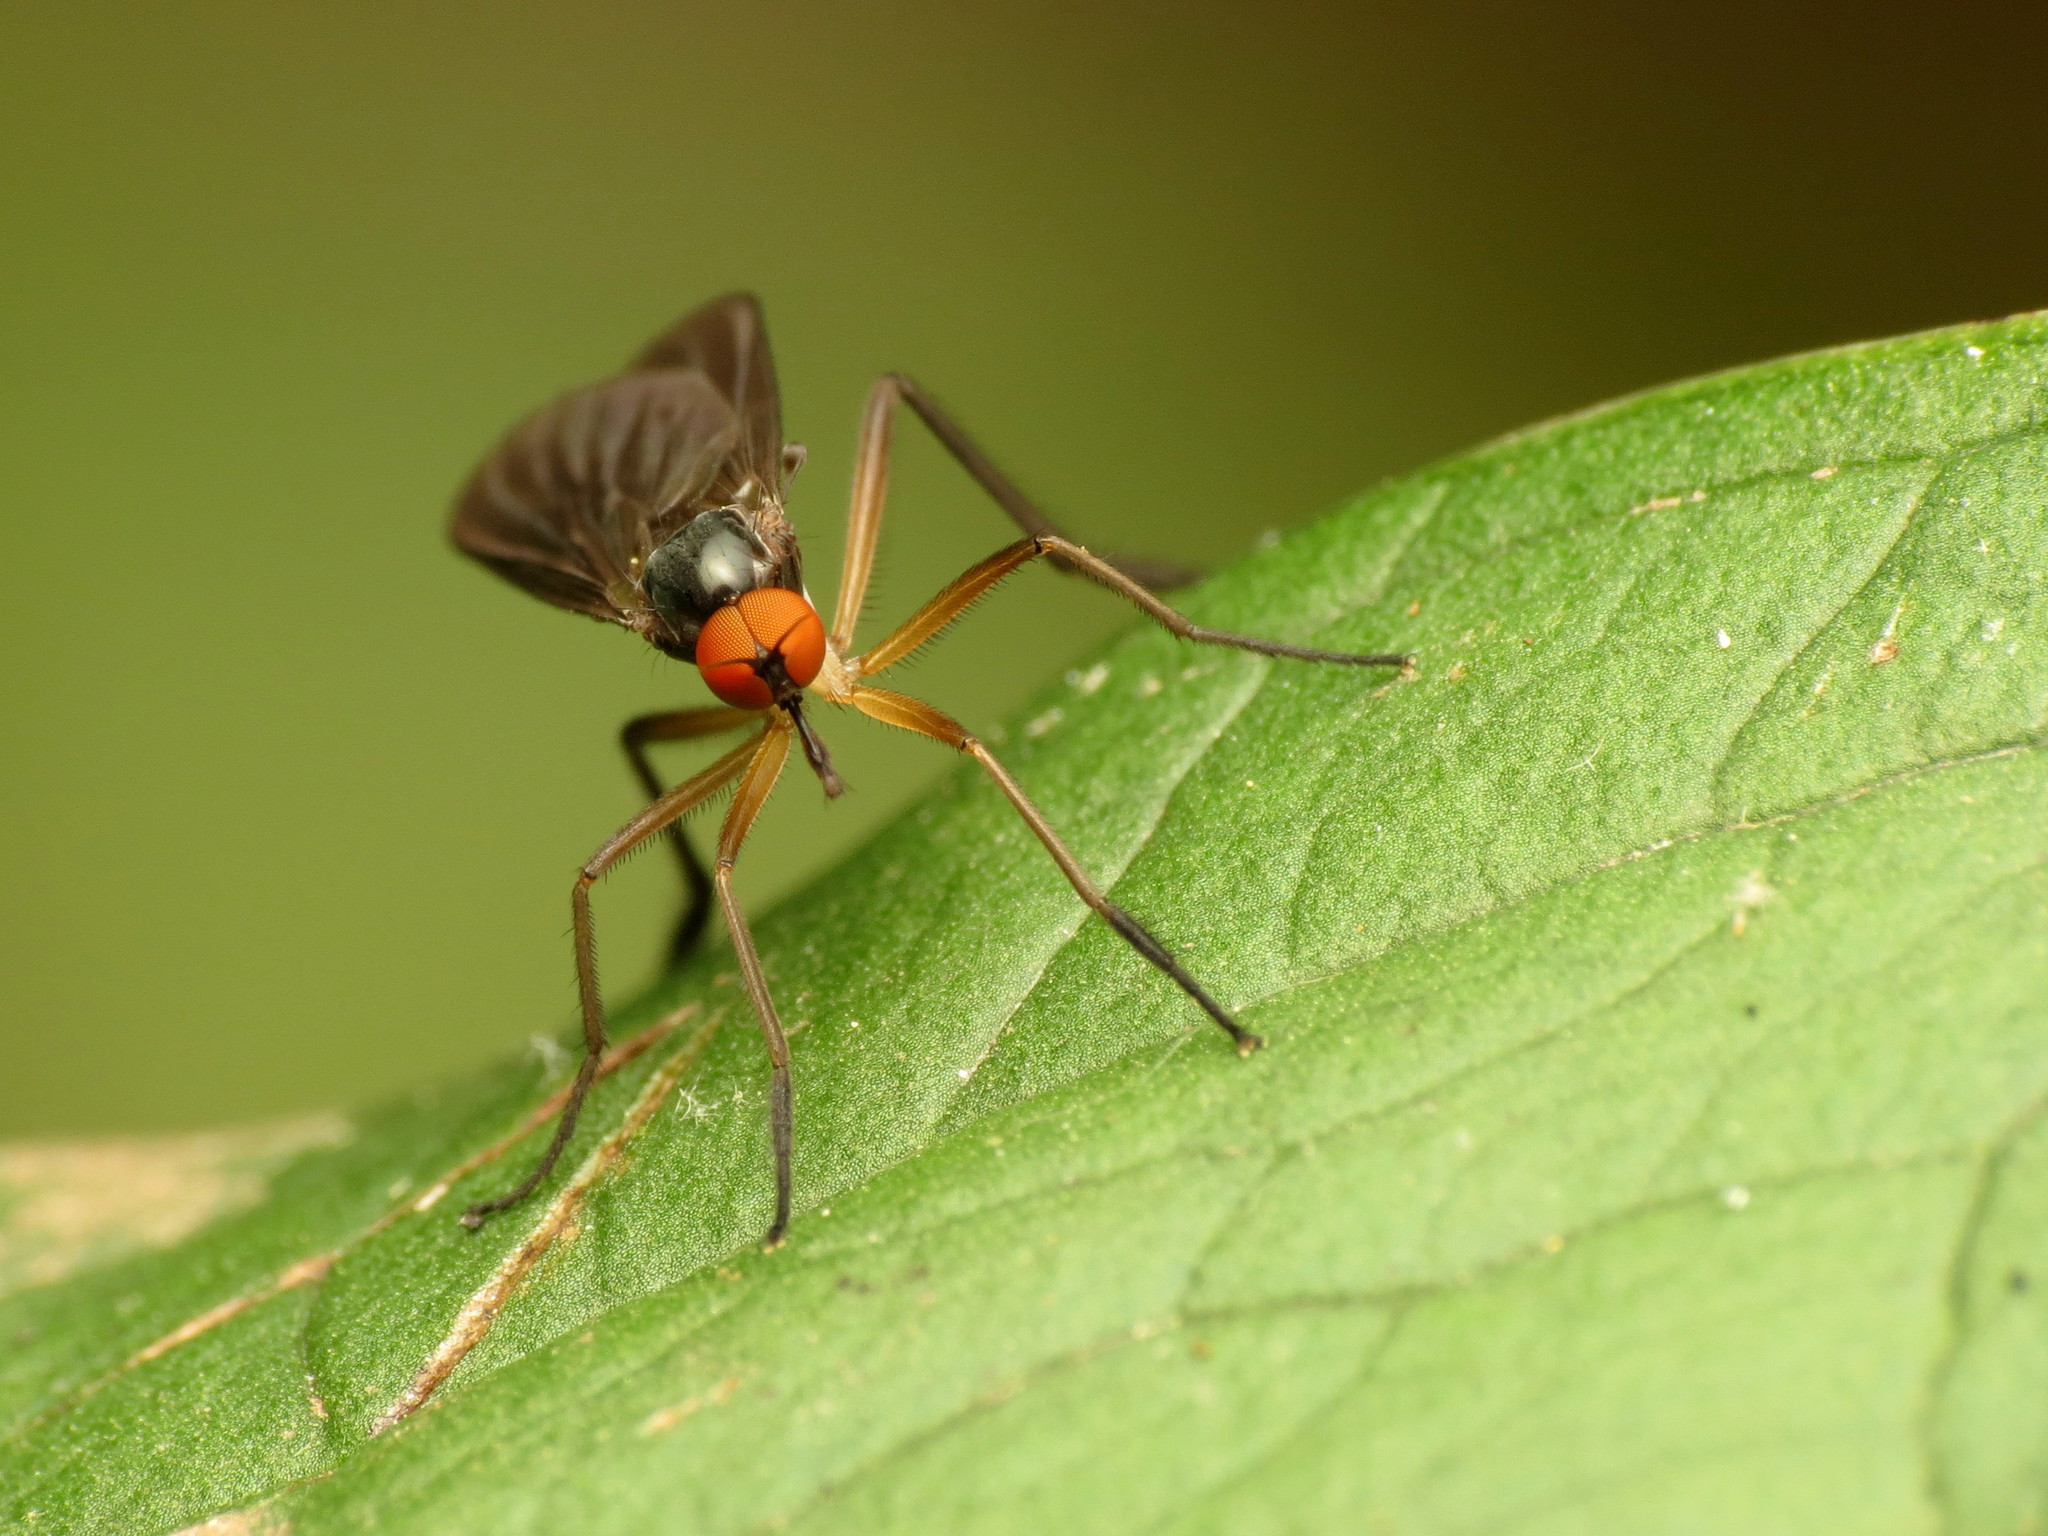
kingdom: Animalia
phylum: Arthropoda
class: Insecta
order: Diptera
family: Empididae
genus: Rhamphomyia
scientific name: Rhamphomyia longicauda
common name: Long-tailed dance fly
